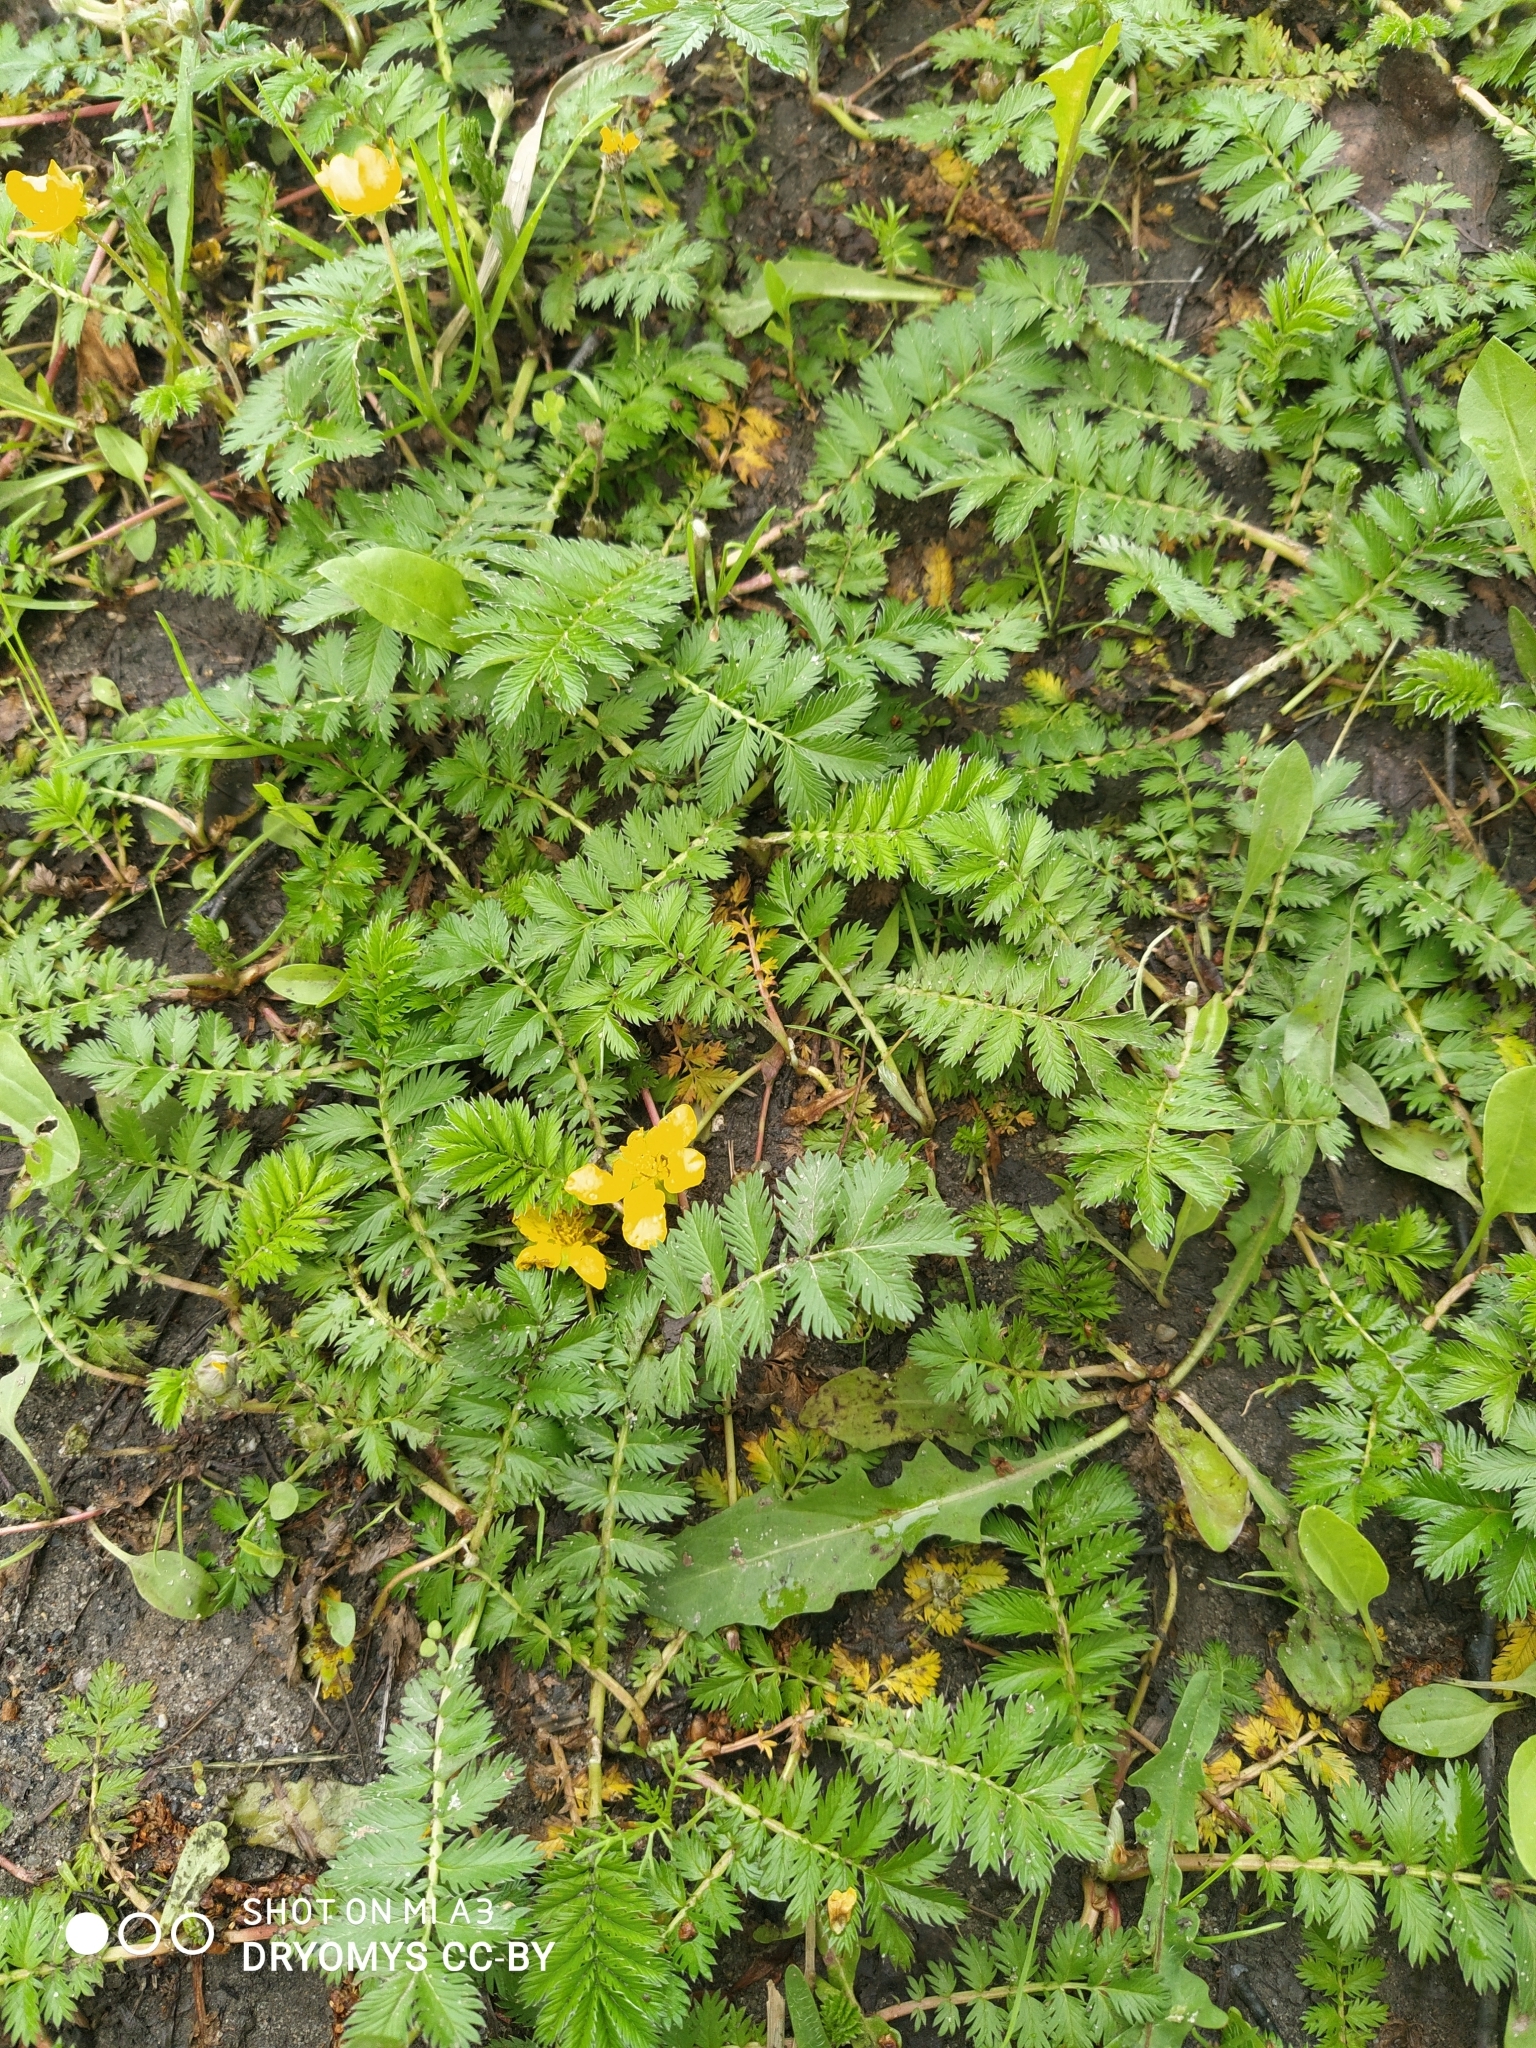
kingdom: Plantae
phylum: Tracheophyta
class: Magnoliopsida
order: Rosales
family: Rosaceae
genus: Argentina
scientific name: Argentina anserina
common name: Common silverweed
